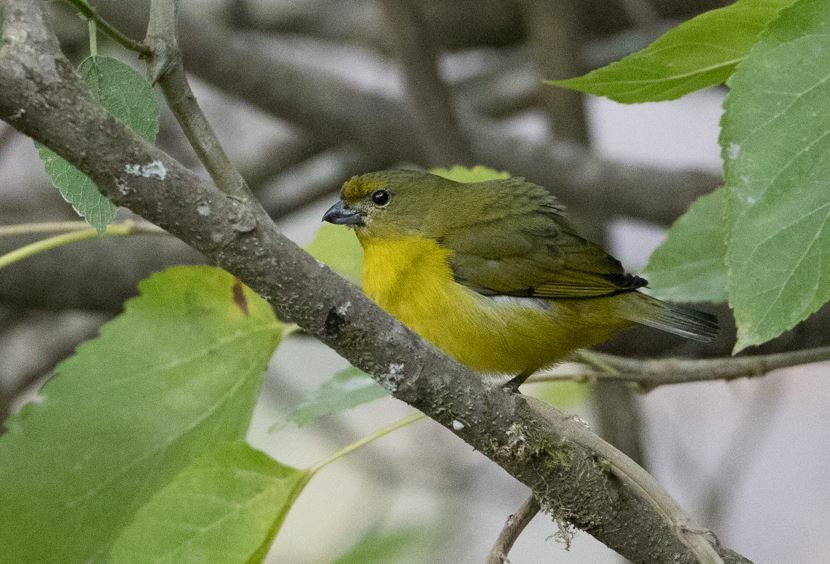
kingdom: Animalia
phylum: Chordata
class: Aves
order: Passeriformes
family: Fringillidae
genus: Euphonia
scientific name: Euphonia laniirostris
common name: Thick-billed euphonia
